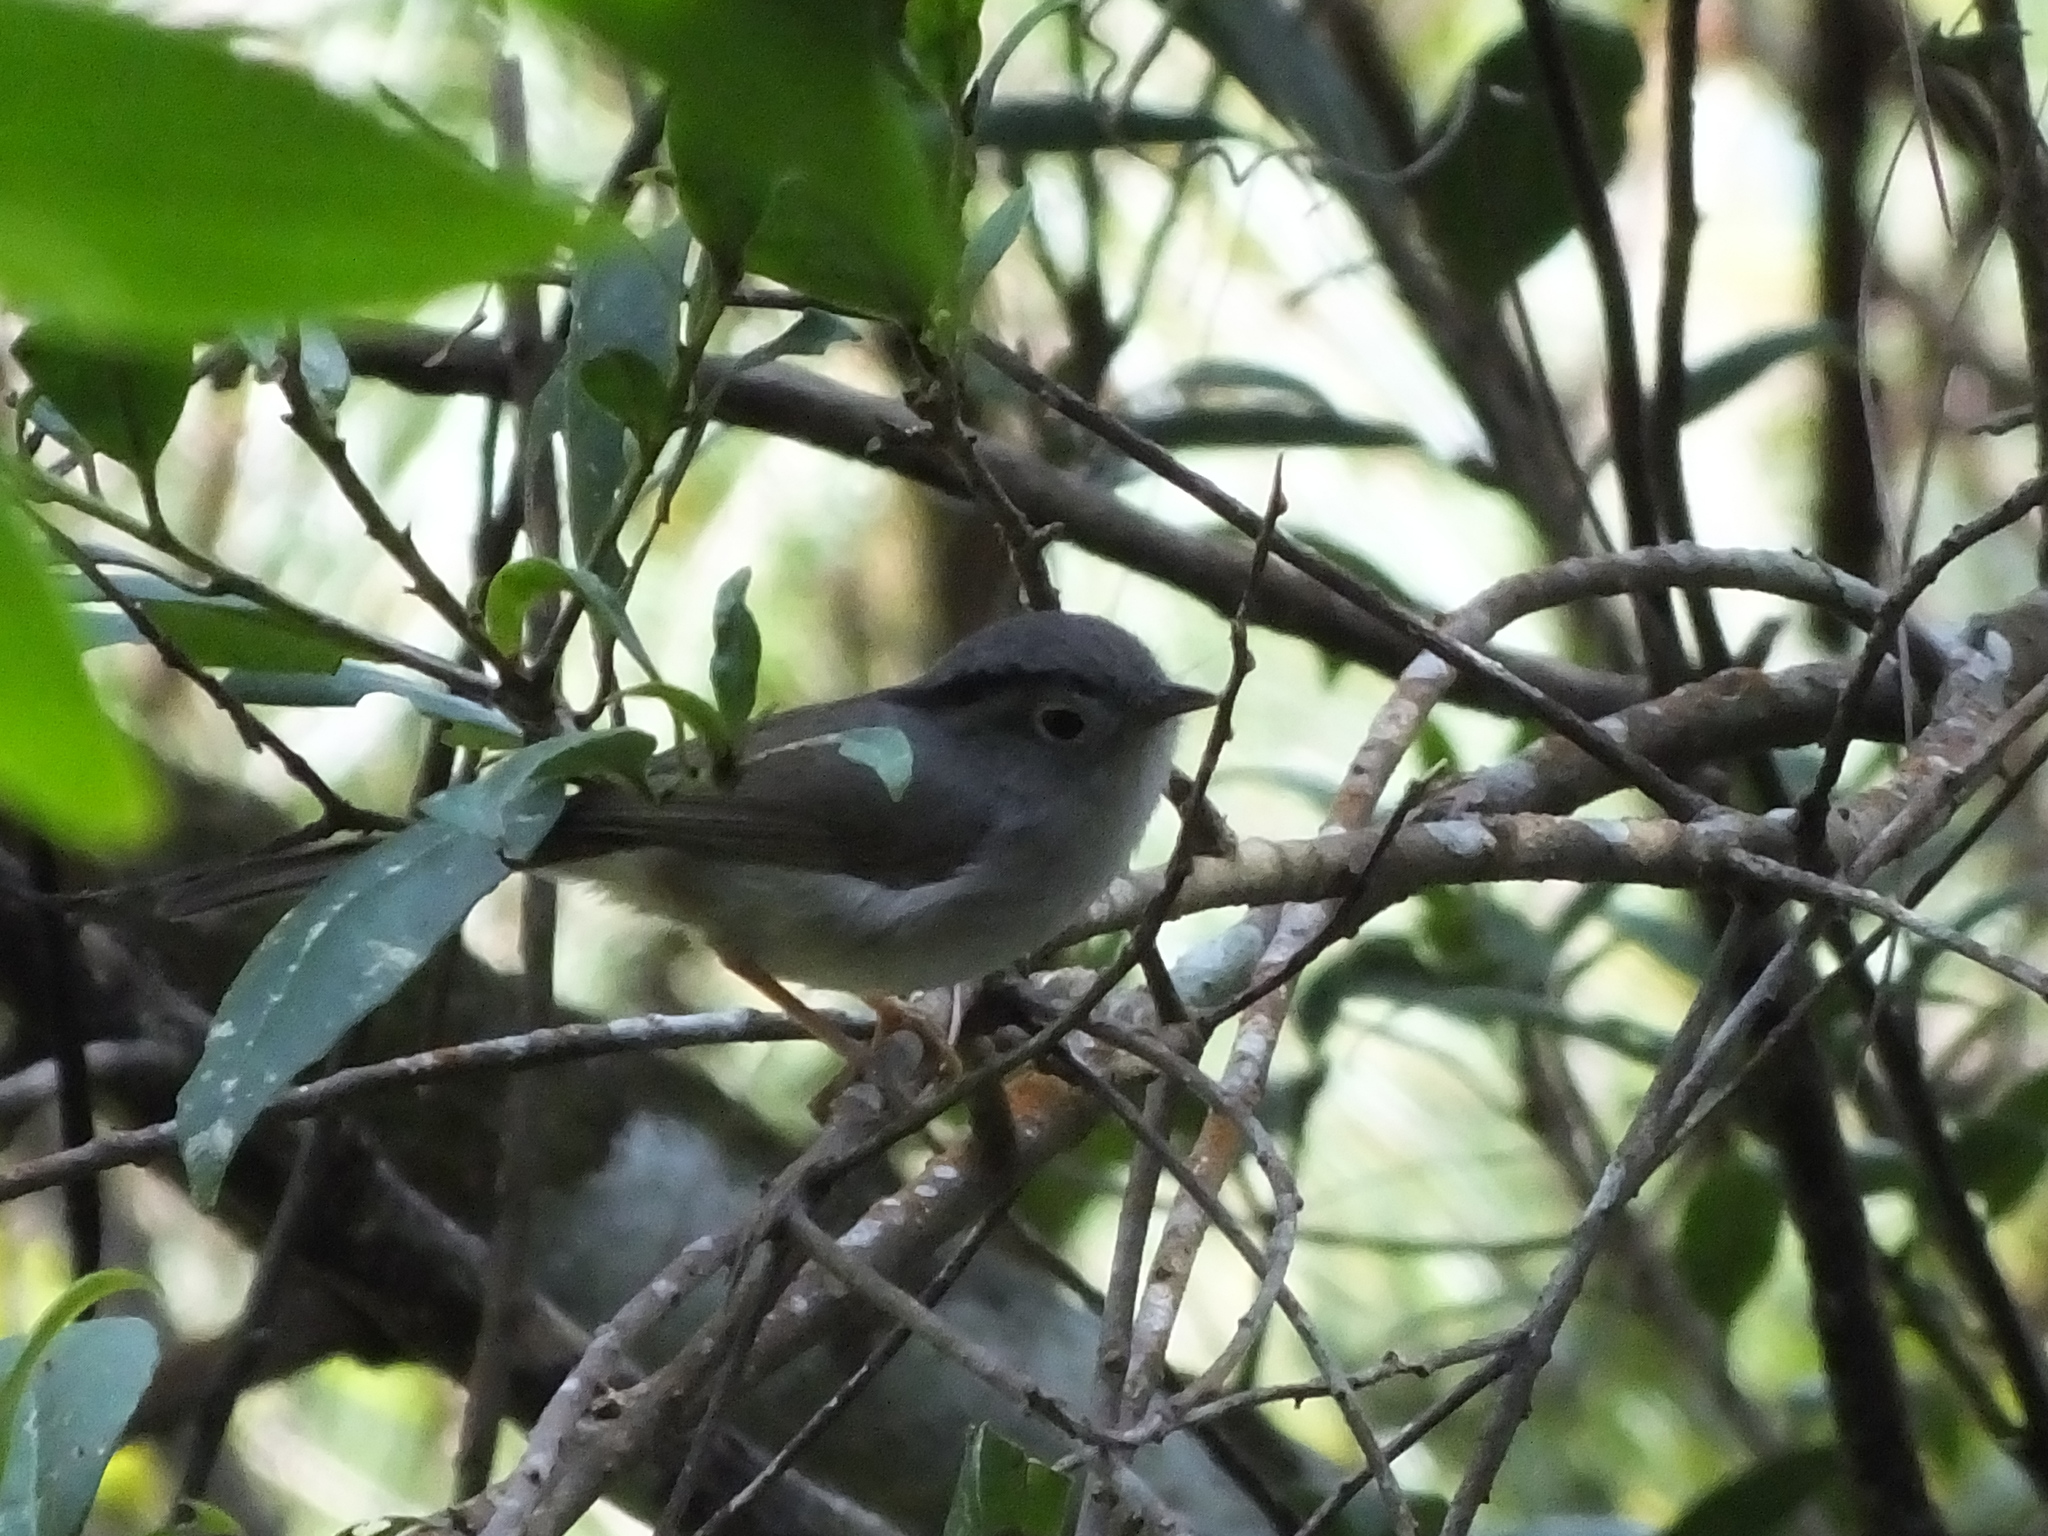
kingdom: Animalia
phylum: Chordata
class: Aves
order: Passeriformes
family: Pellorneidae
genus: Alcippe
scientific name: Alcippe peracensis
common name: Mountain fulvetta
